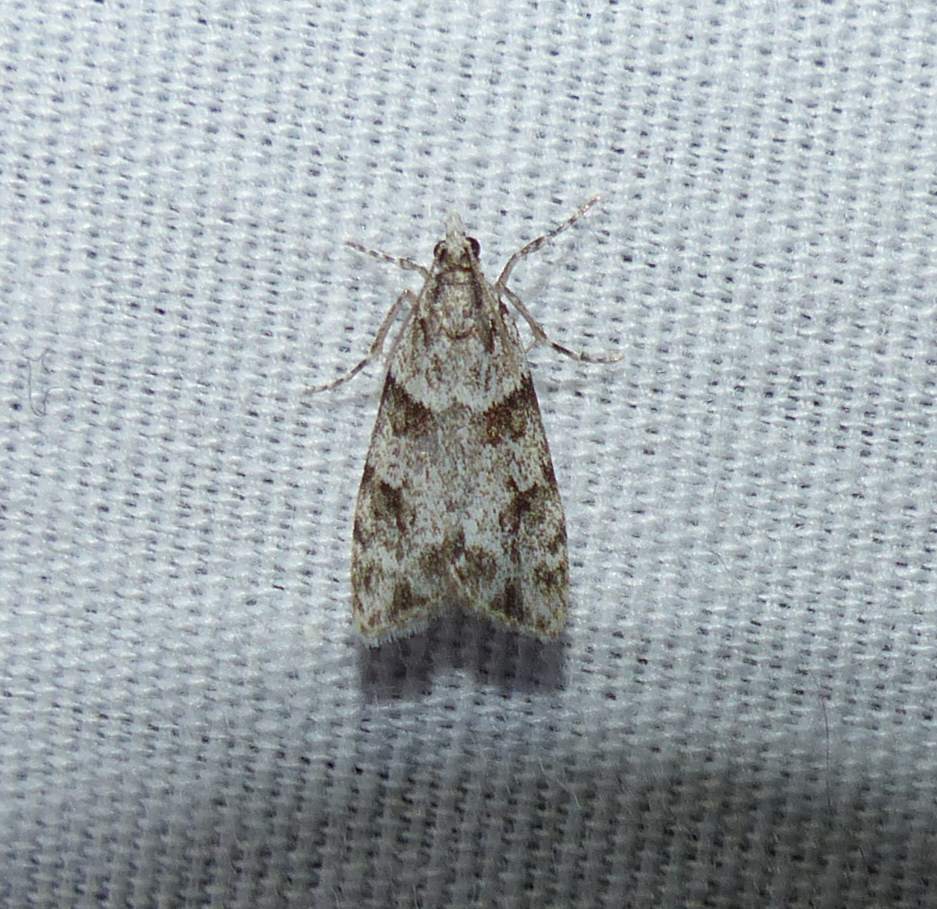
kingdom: Animalia
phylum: Arthropoda
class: Insecta
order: Lepidoptera
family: Crambidae
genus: Scoparia
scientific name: Scoparia biplagialis
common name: Double-striped scoparia moth
